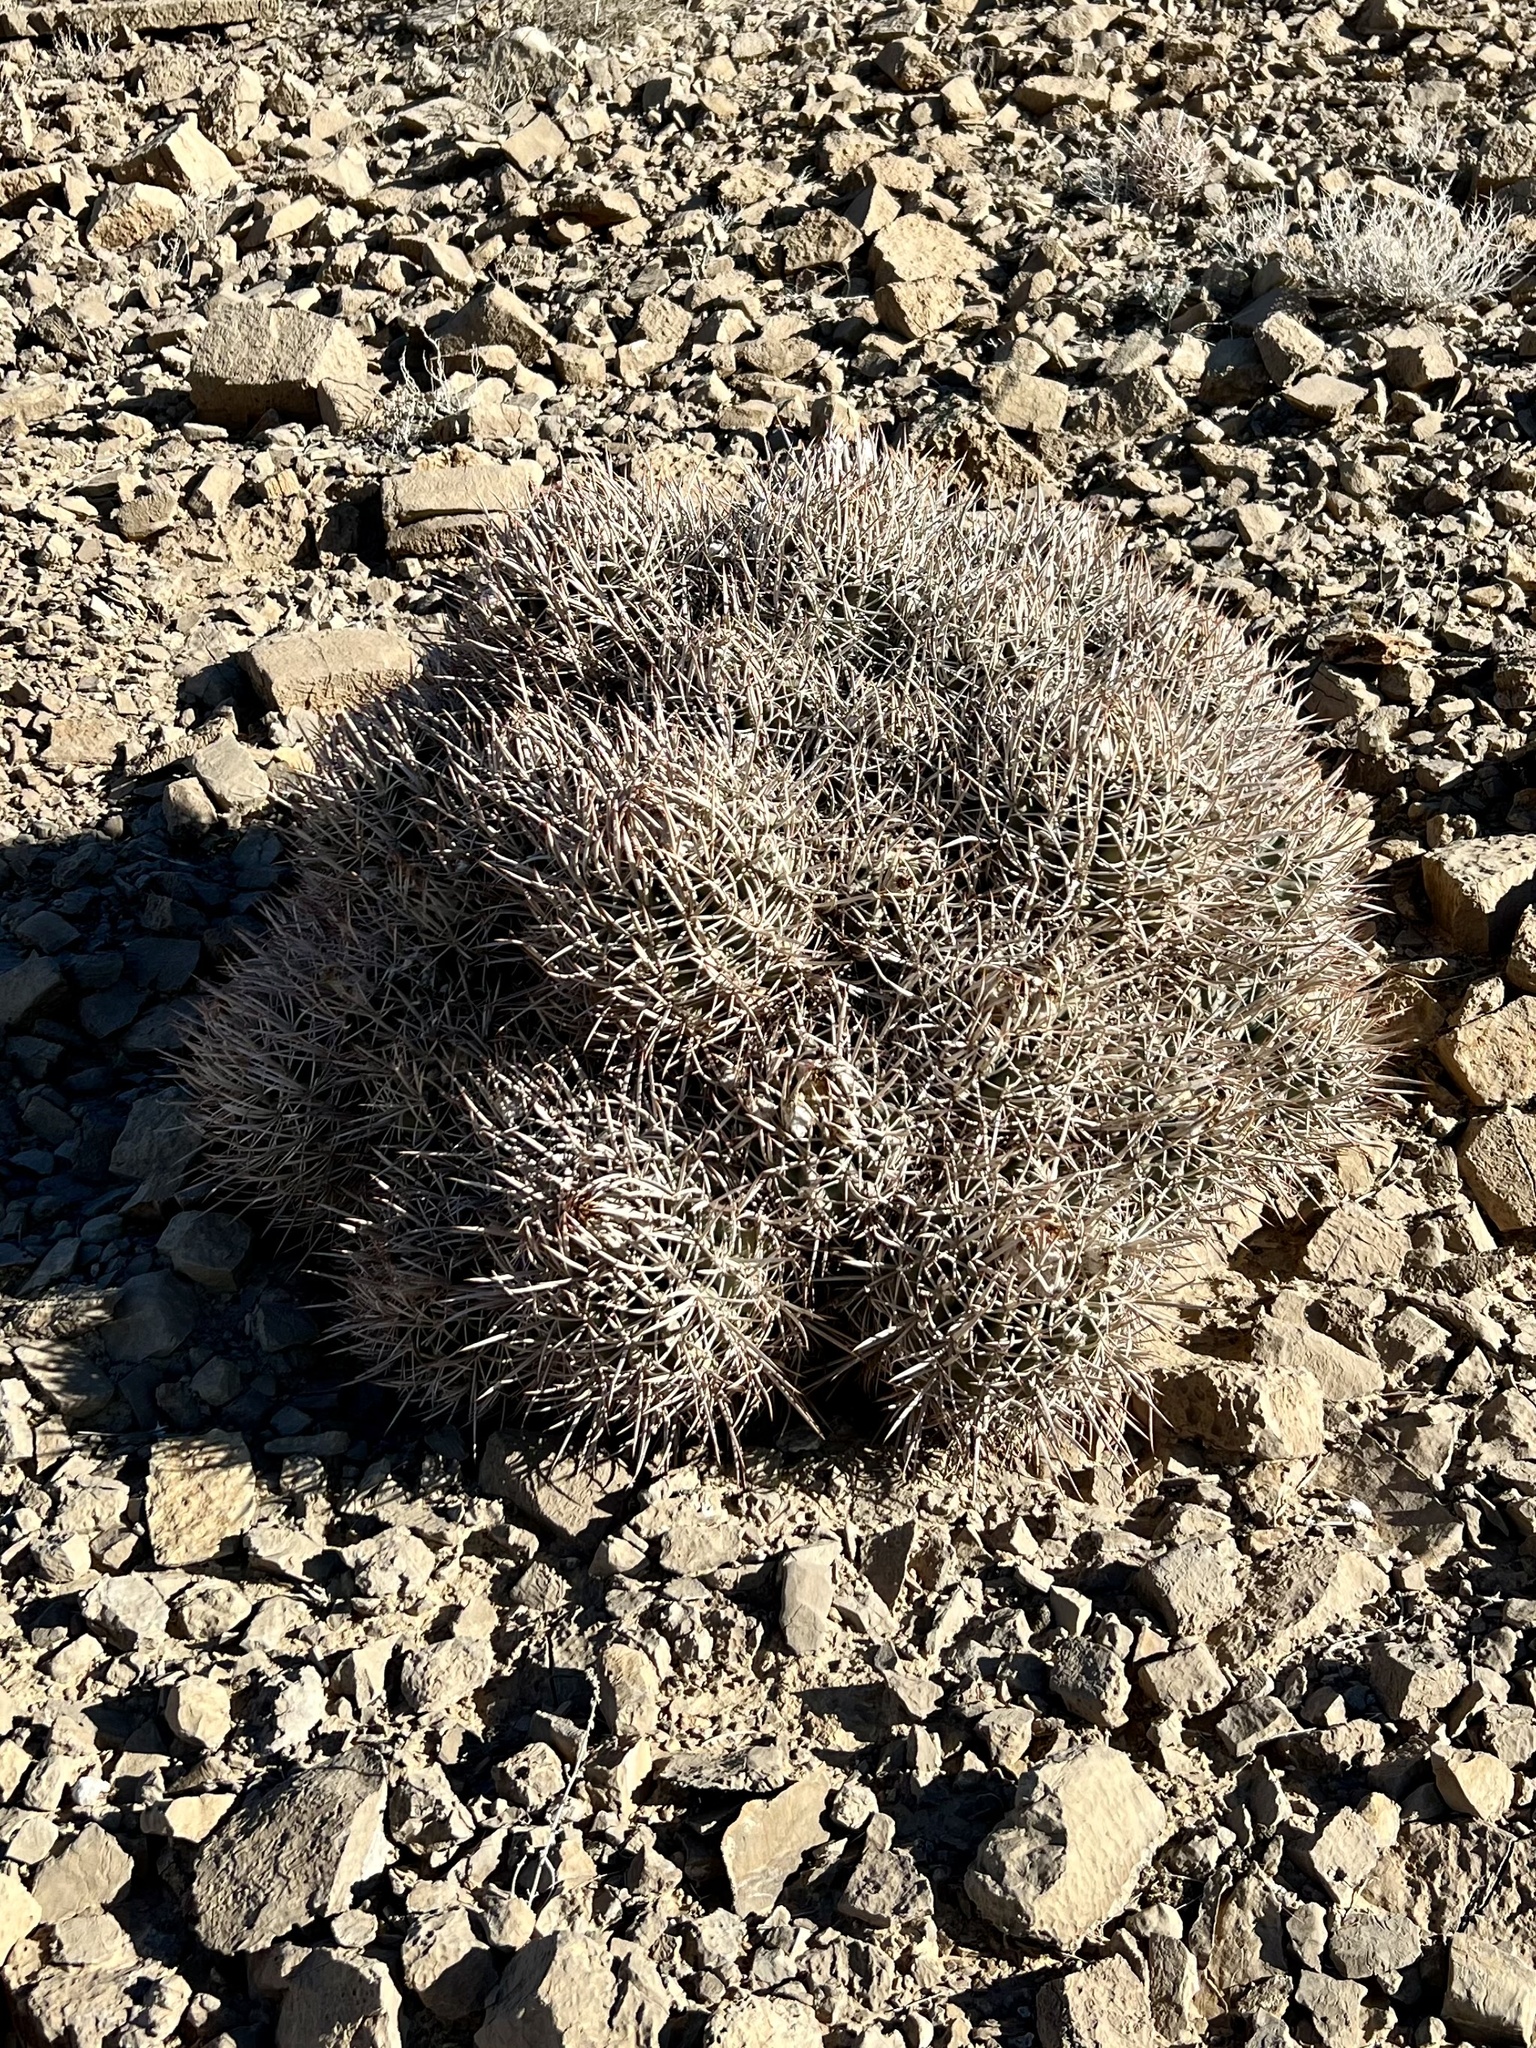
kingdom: Plantae
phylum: Tracheophyta
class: Magnoliopsida
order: Caryophyllales
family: Cactaceae
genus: Echinocactus
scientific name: Echinocactus polycephalus
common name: Cottontop cactus
